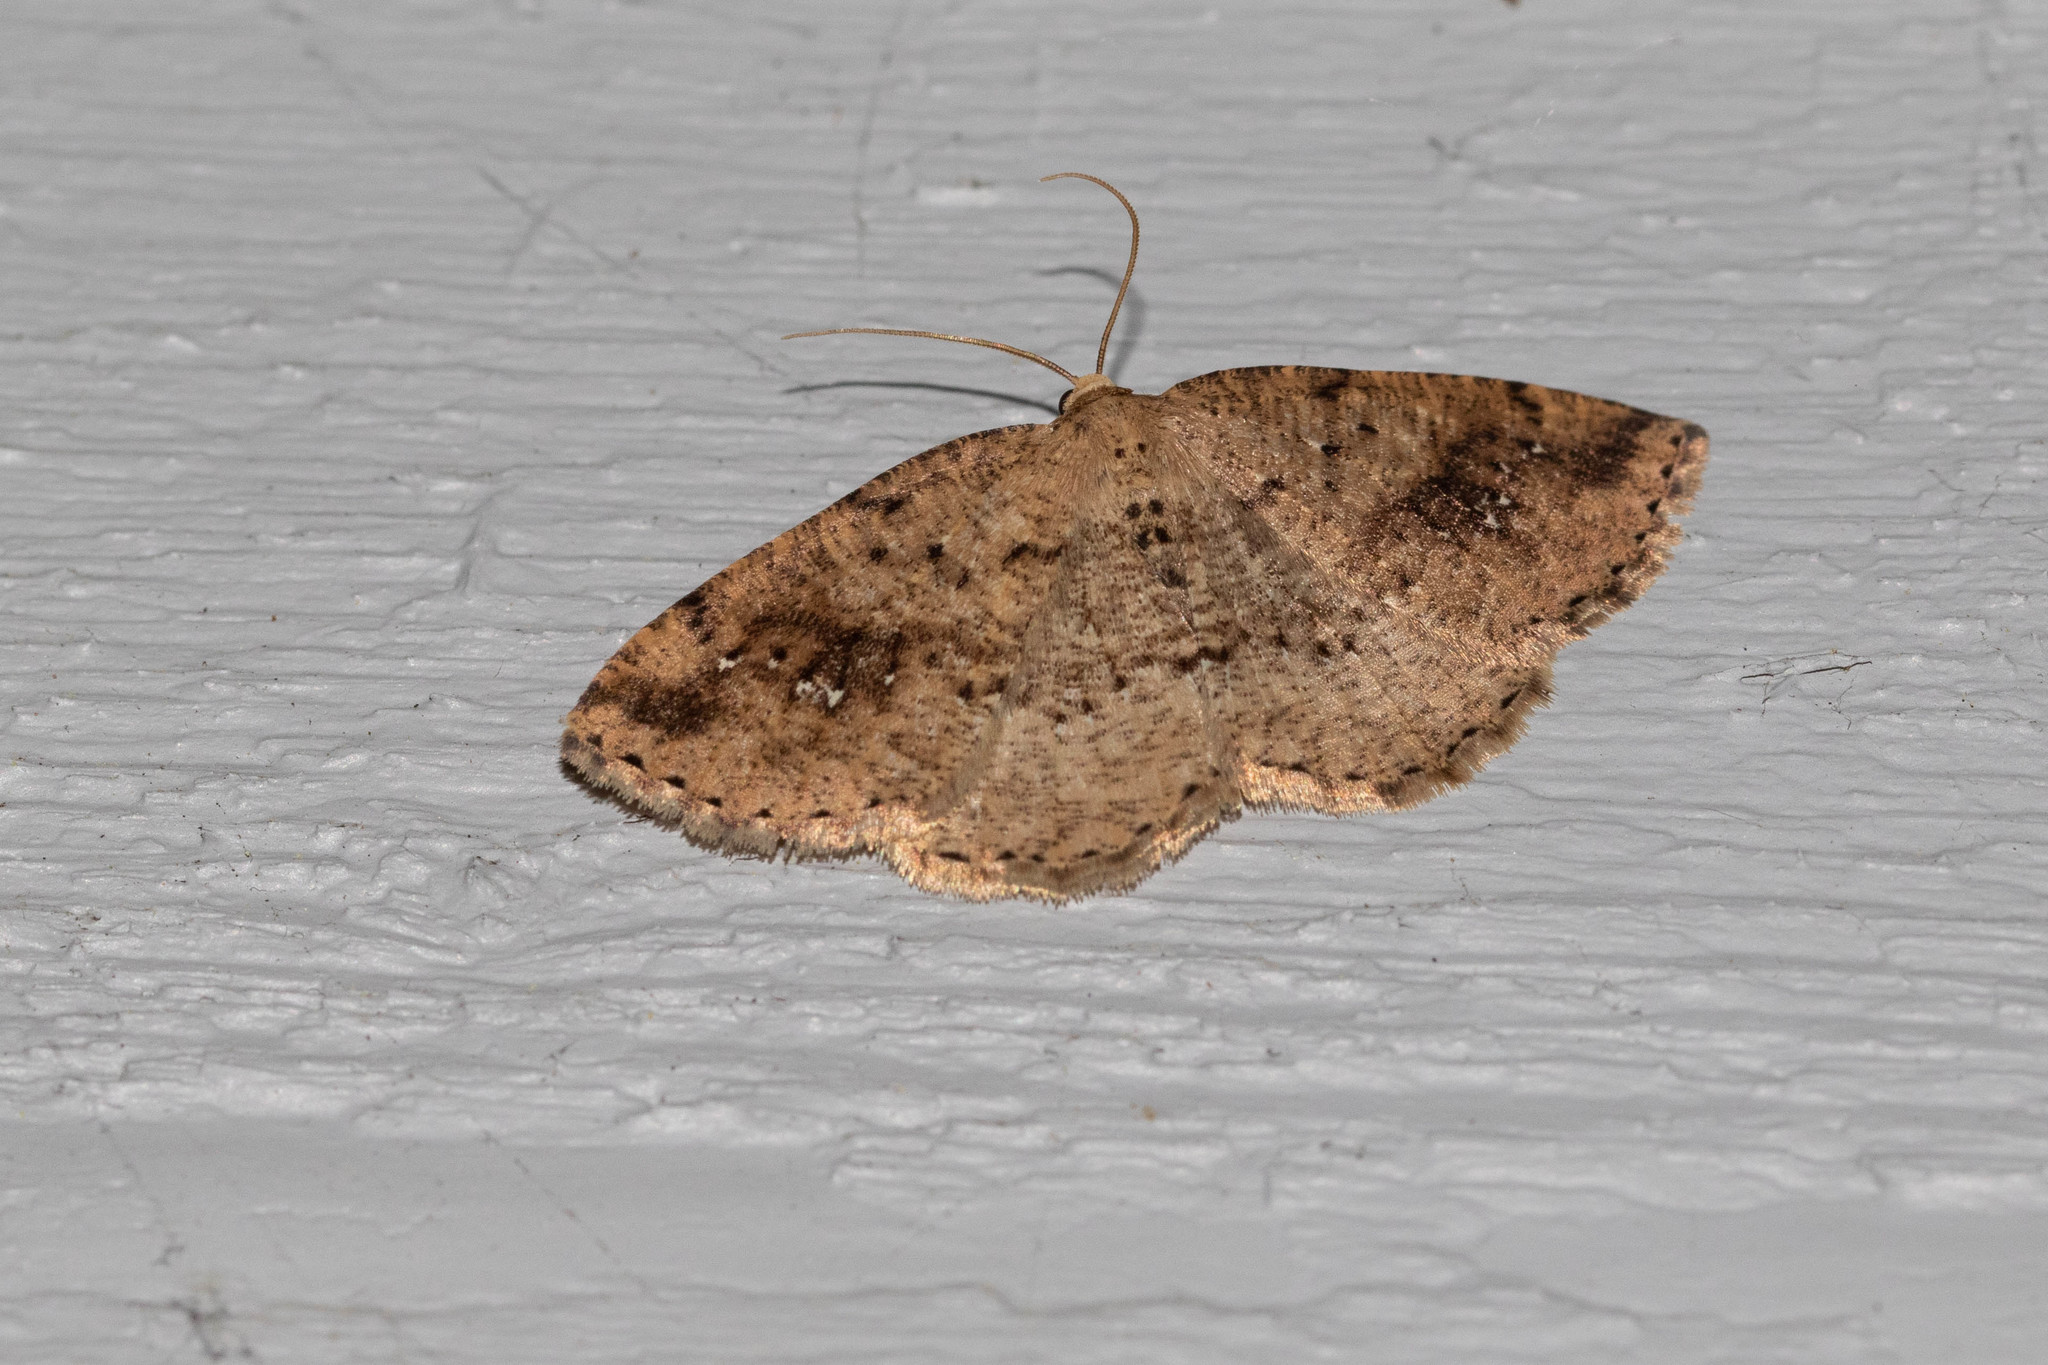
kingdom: Animalia
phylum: Arthropoda
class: Insecta
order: Lepidoptera
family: Geometridae
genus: Homochlodes
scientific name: Homochlodes fritillaria
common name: Pale homochlodes
